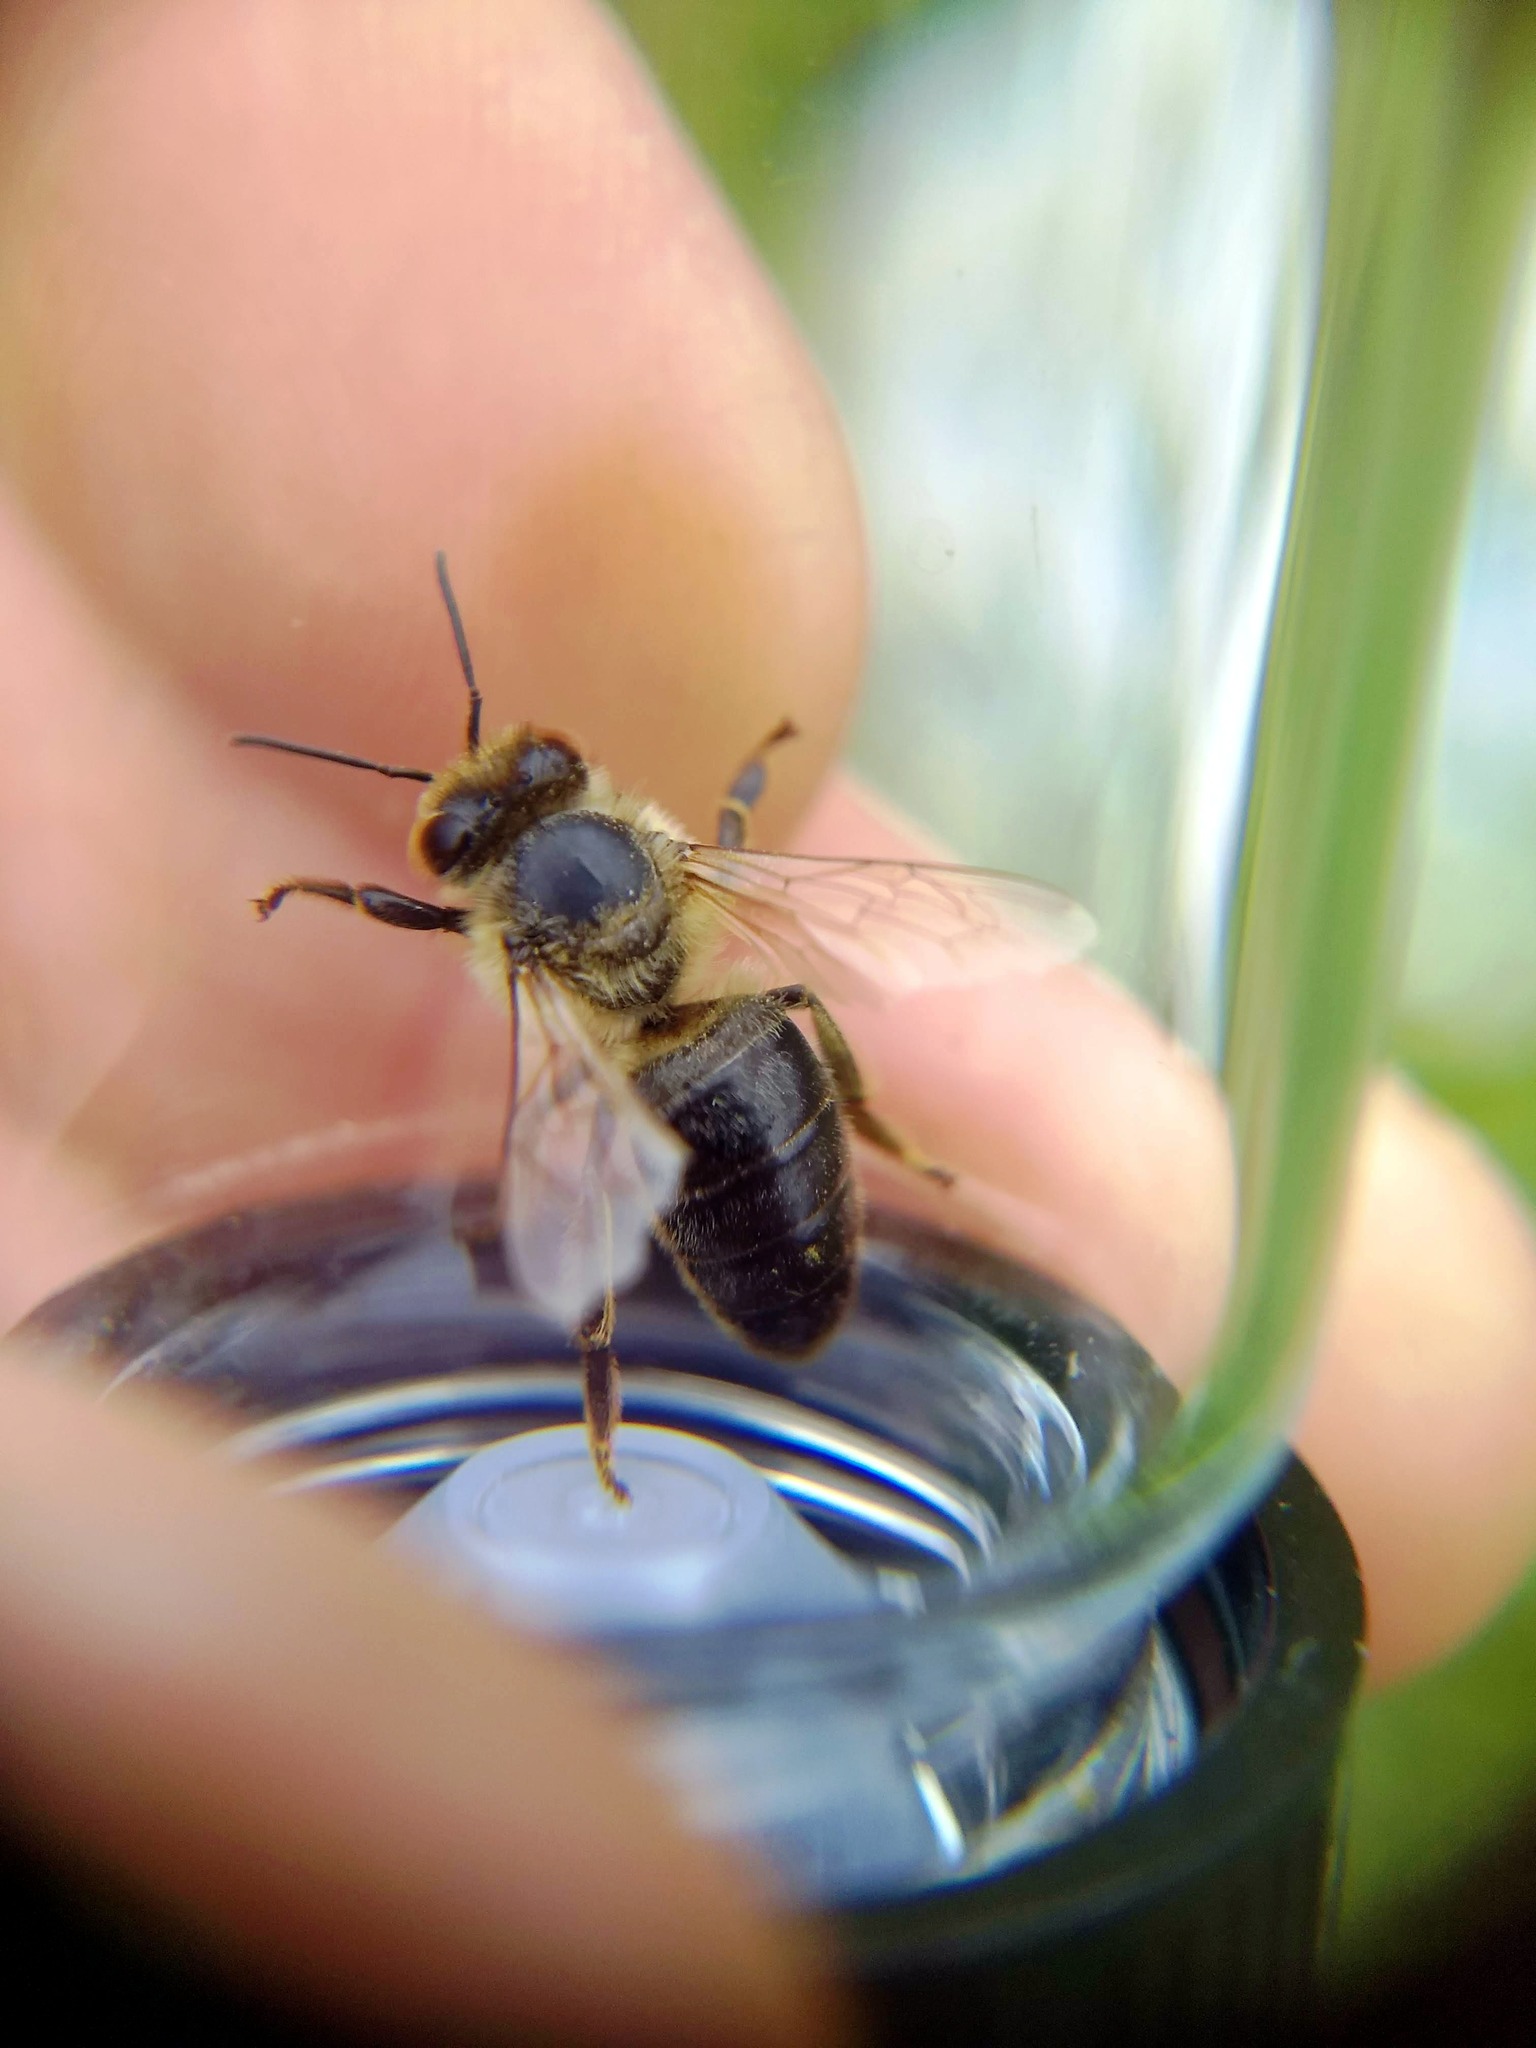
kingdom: Animalia
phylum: Arthropoda
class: Insecta
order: Hymenoptera
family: Apidae
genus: Apis
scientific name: Apis mellifera
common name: Honey bee
